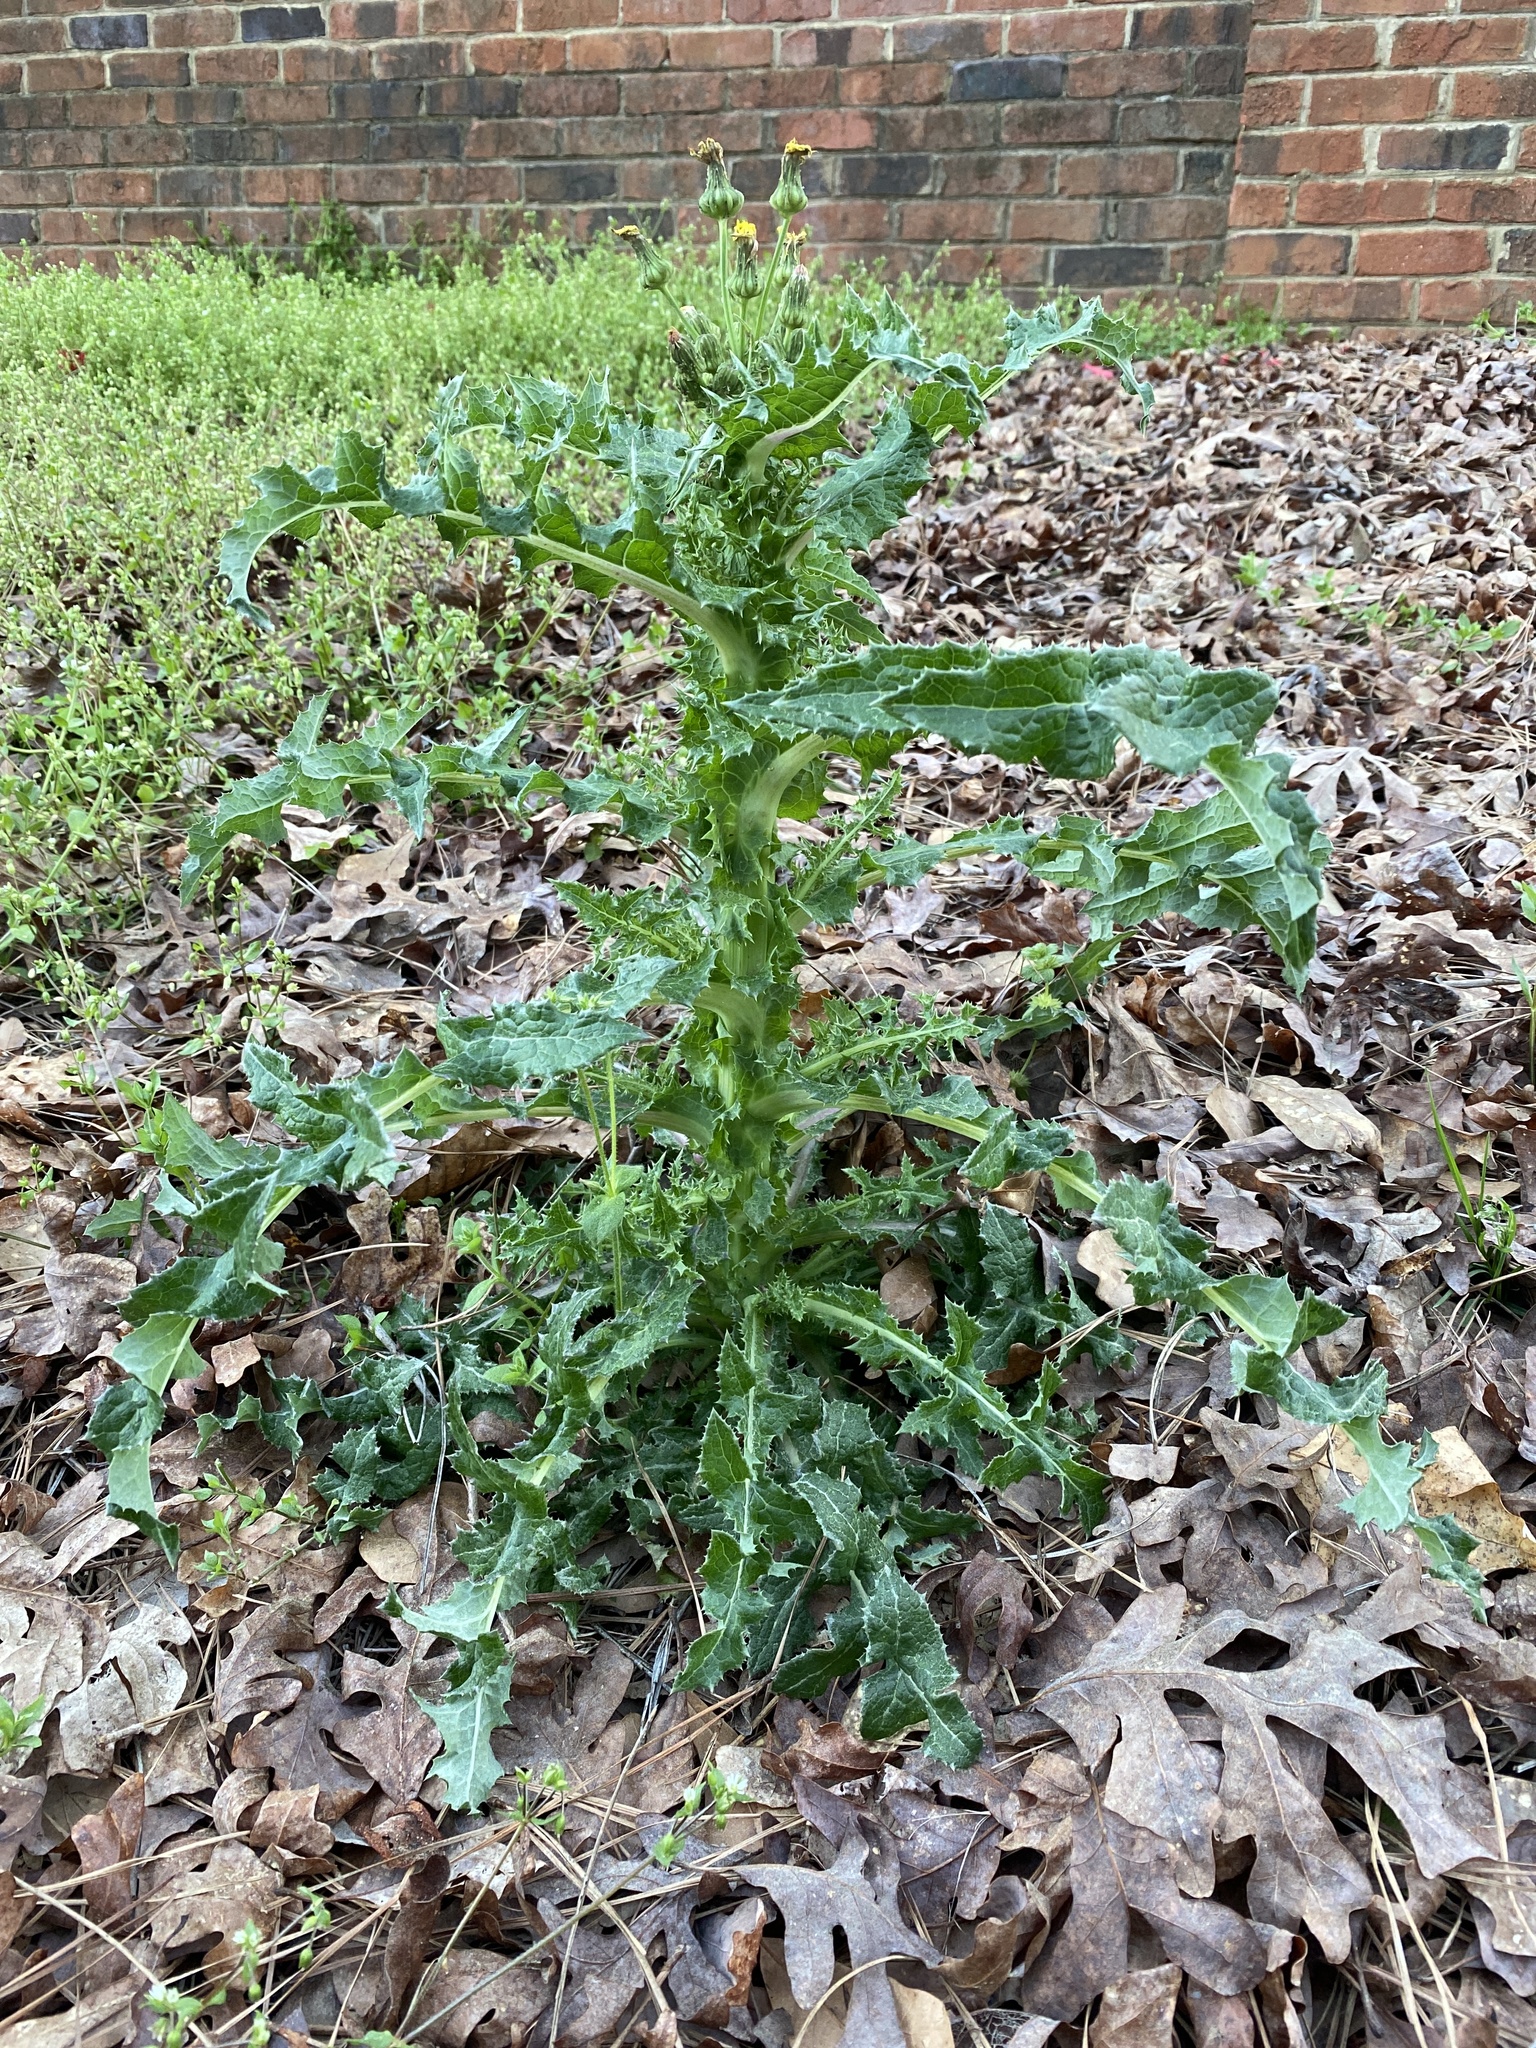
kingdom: Plantae
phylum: Tracheophyta
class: Magnoliopsida
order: Asterales
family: Asteraceae
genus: Sonchus
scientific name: Sonchus asper
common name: Prickly sow-thistle
